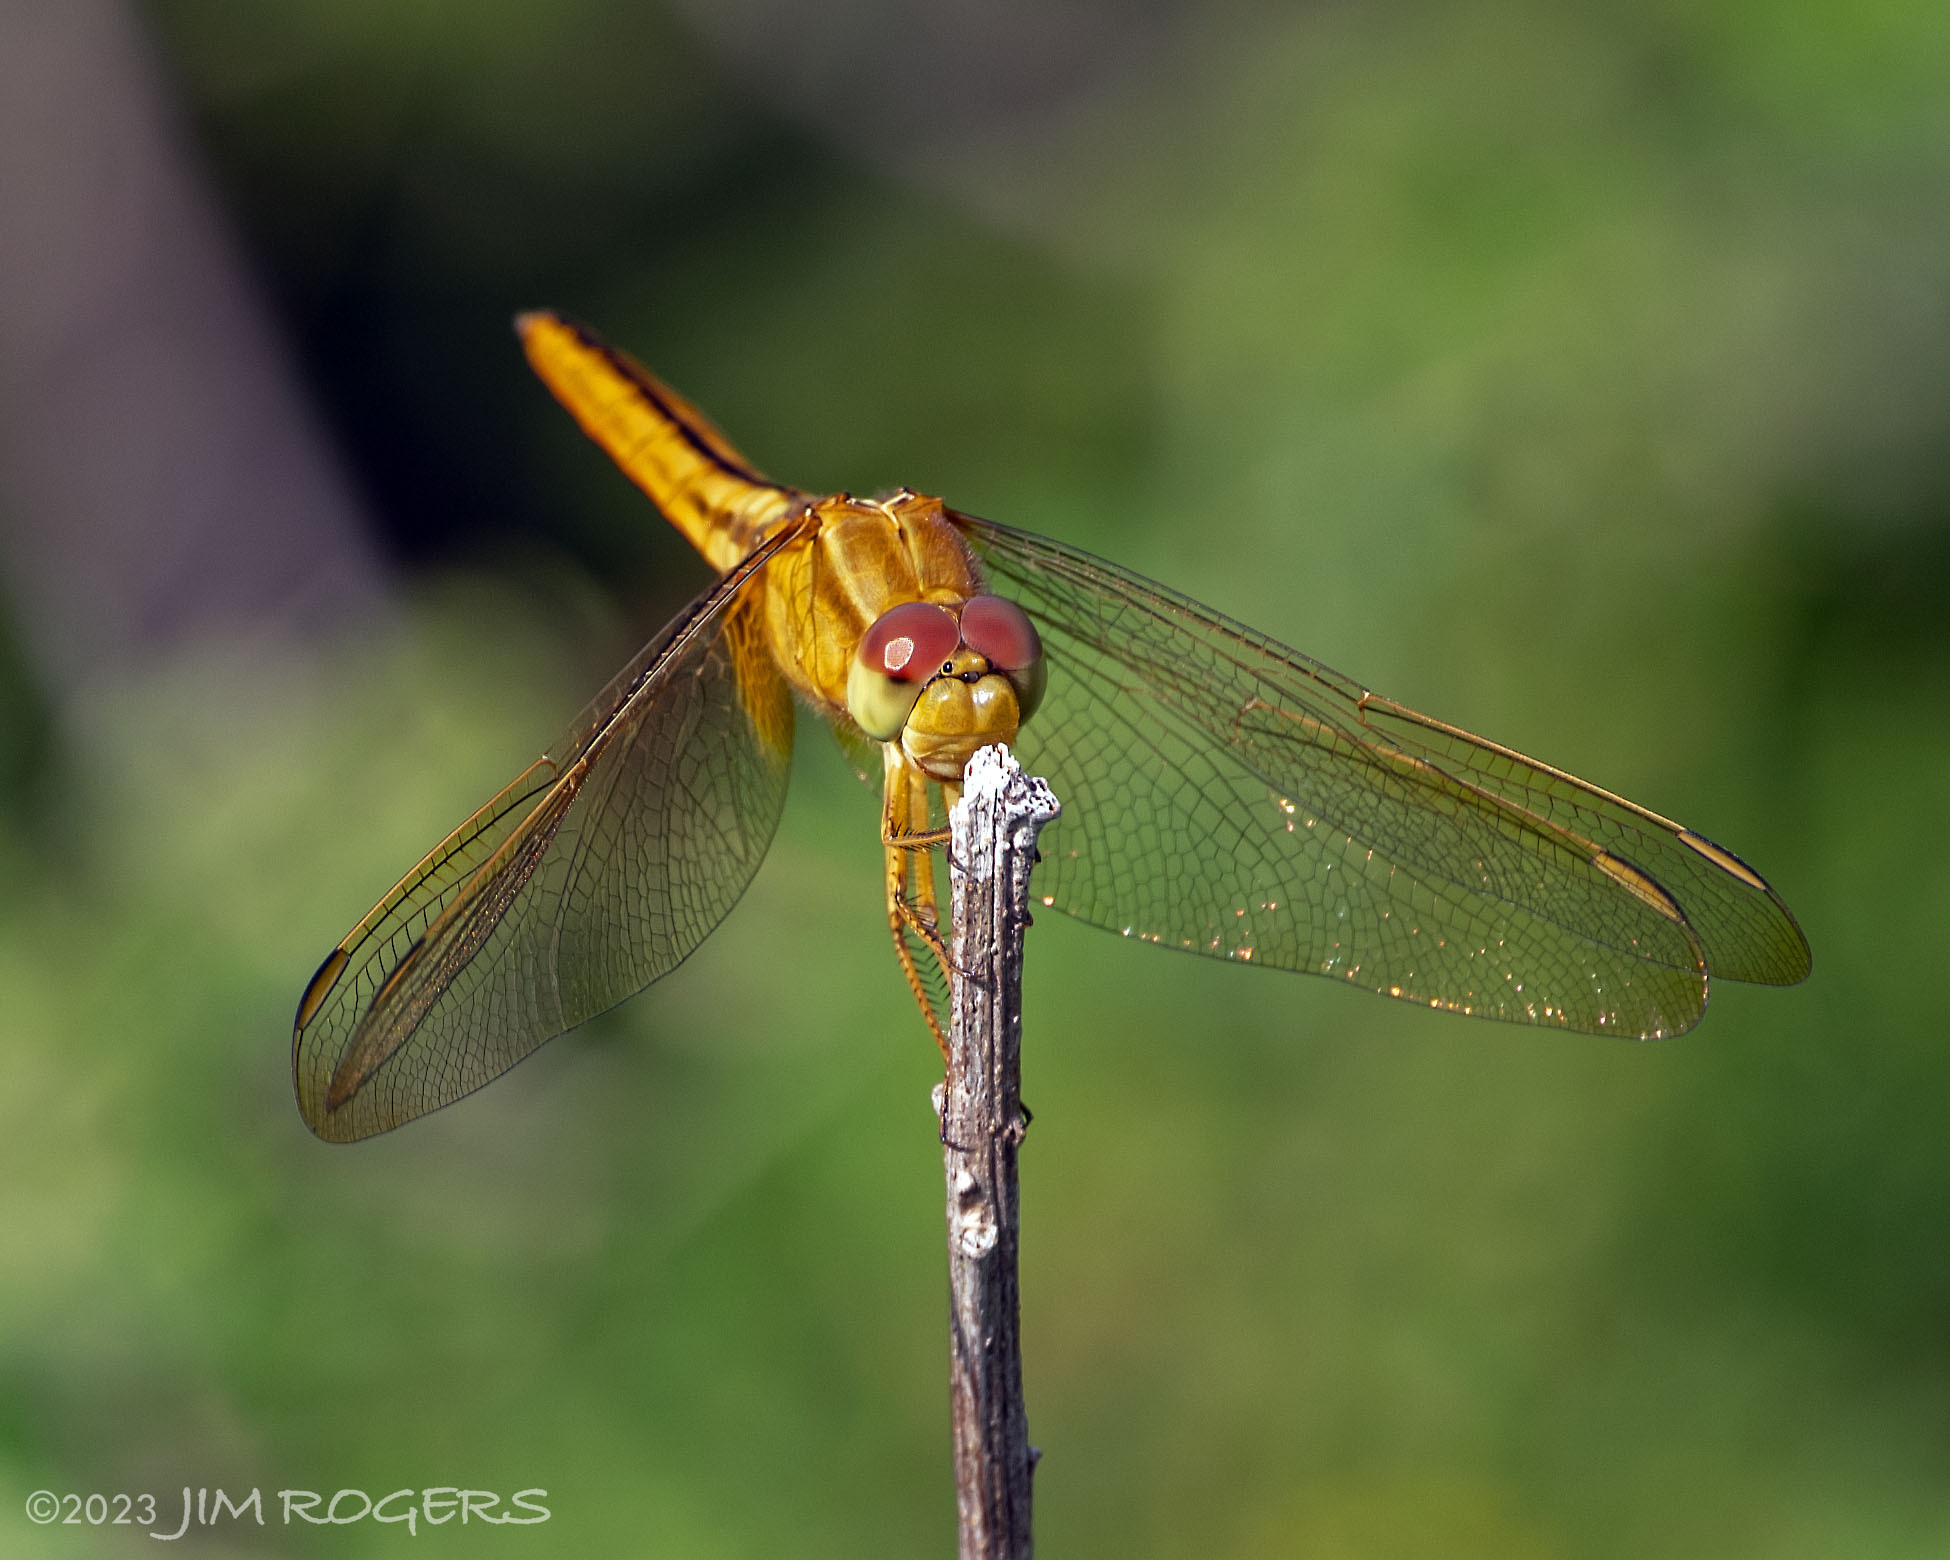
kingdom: Animalia
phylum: Arthropoda
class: Insecta
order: Odonata
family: Libellulidae
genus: Crocothemis
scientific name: Crocothemis servilia
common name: Scarlet skimmer
